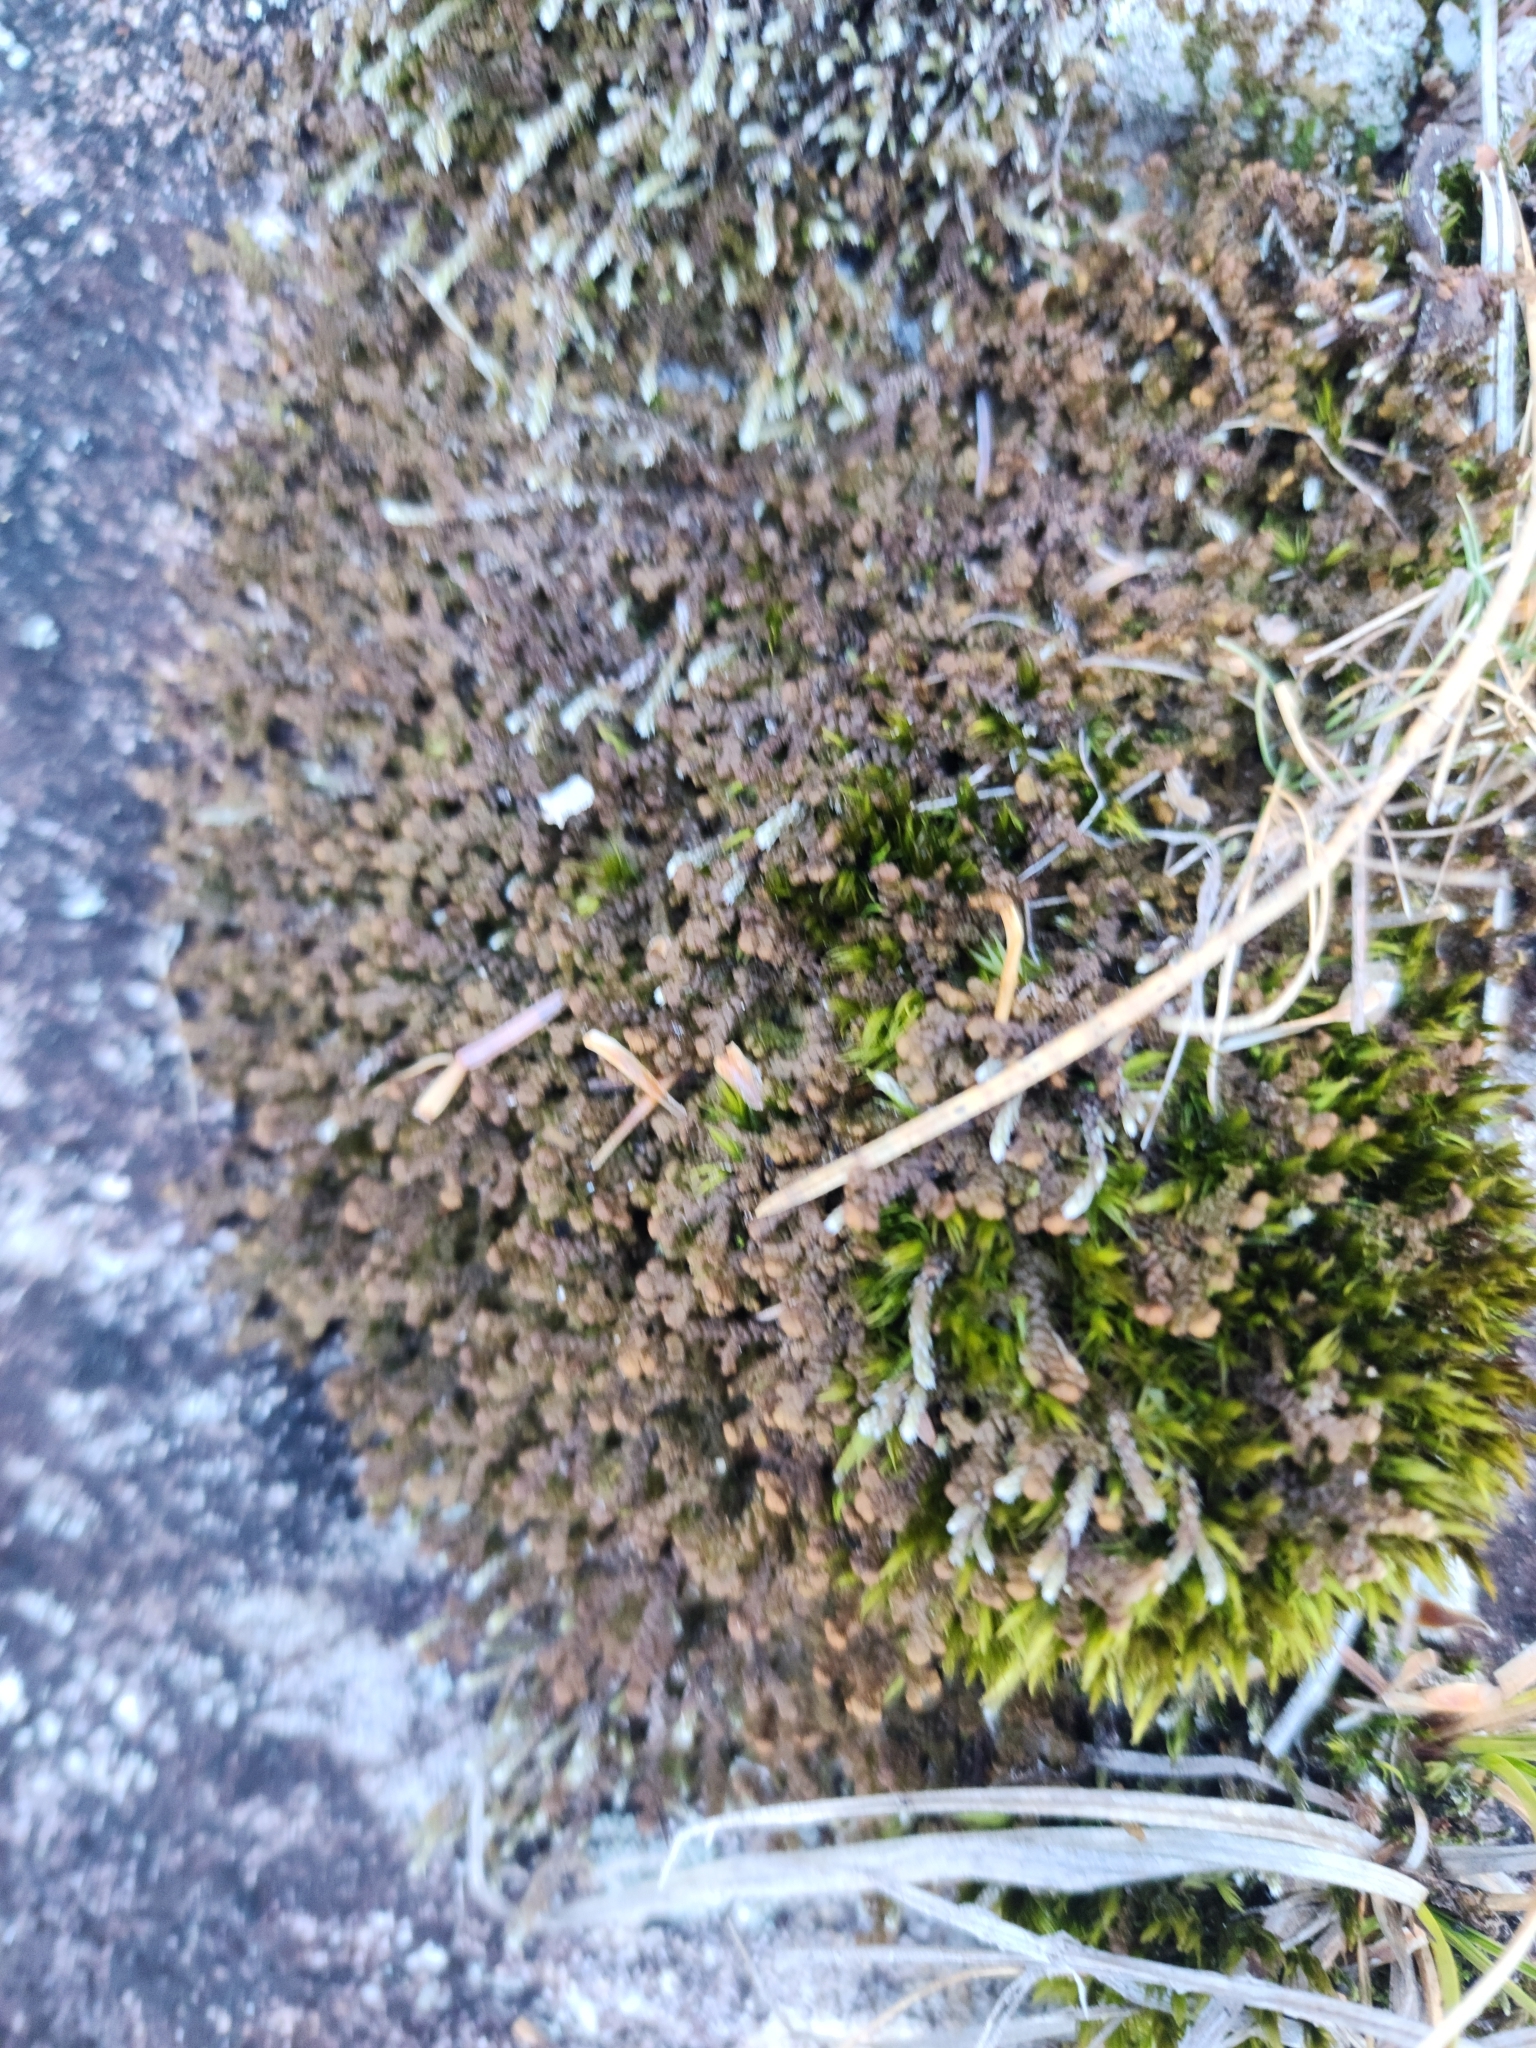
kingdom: Plantae
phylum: Marchantiophyta
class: Jungermanniopsida
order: Ptilidiales
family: Ptilidiaceae
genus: Ptilidium
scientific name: Ptilidium ciliare
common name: Ciliate fringewort
